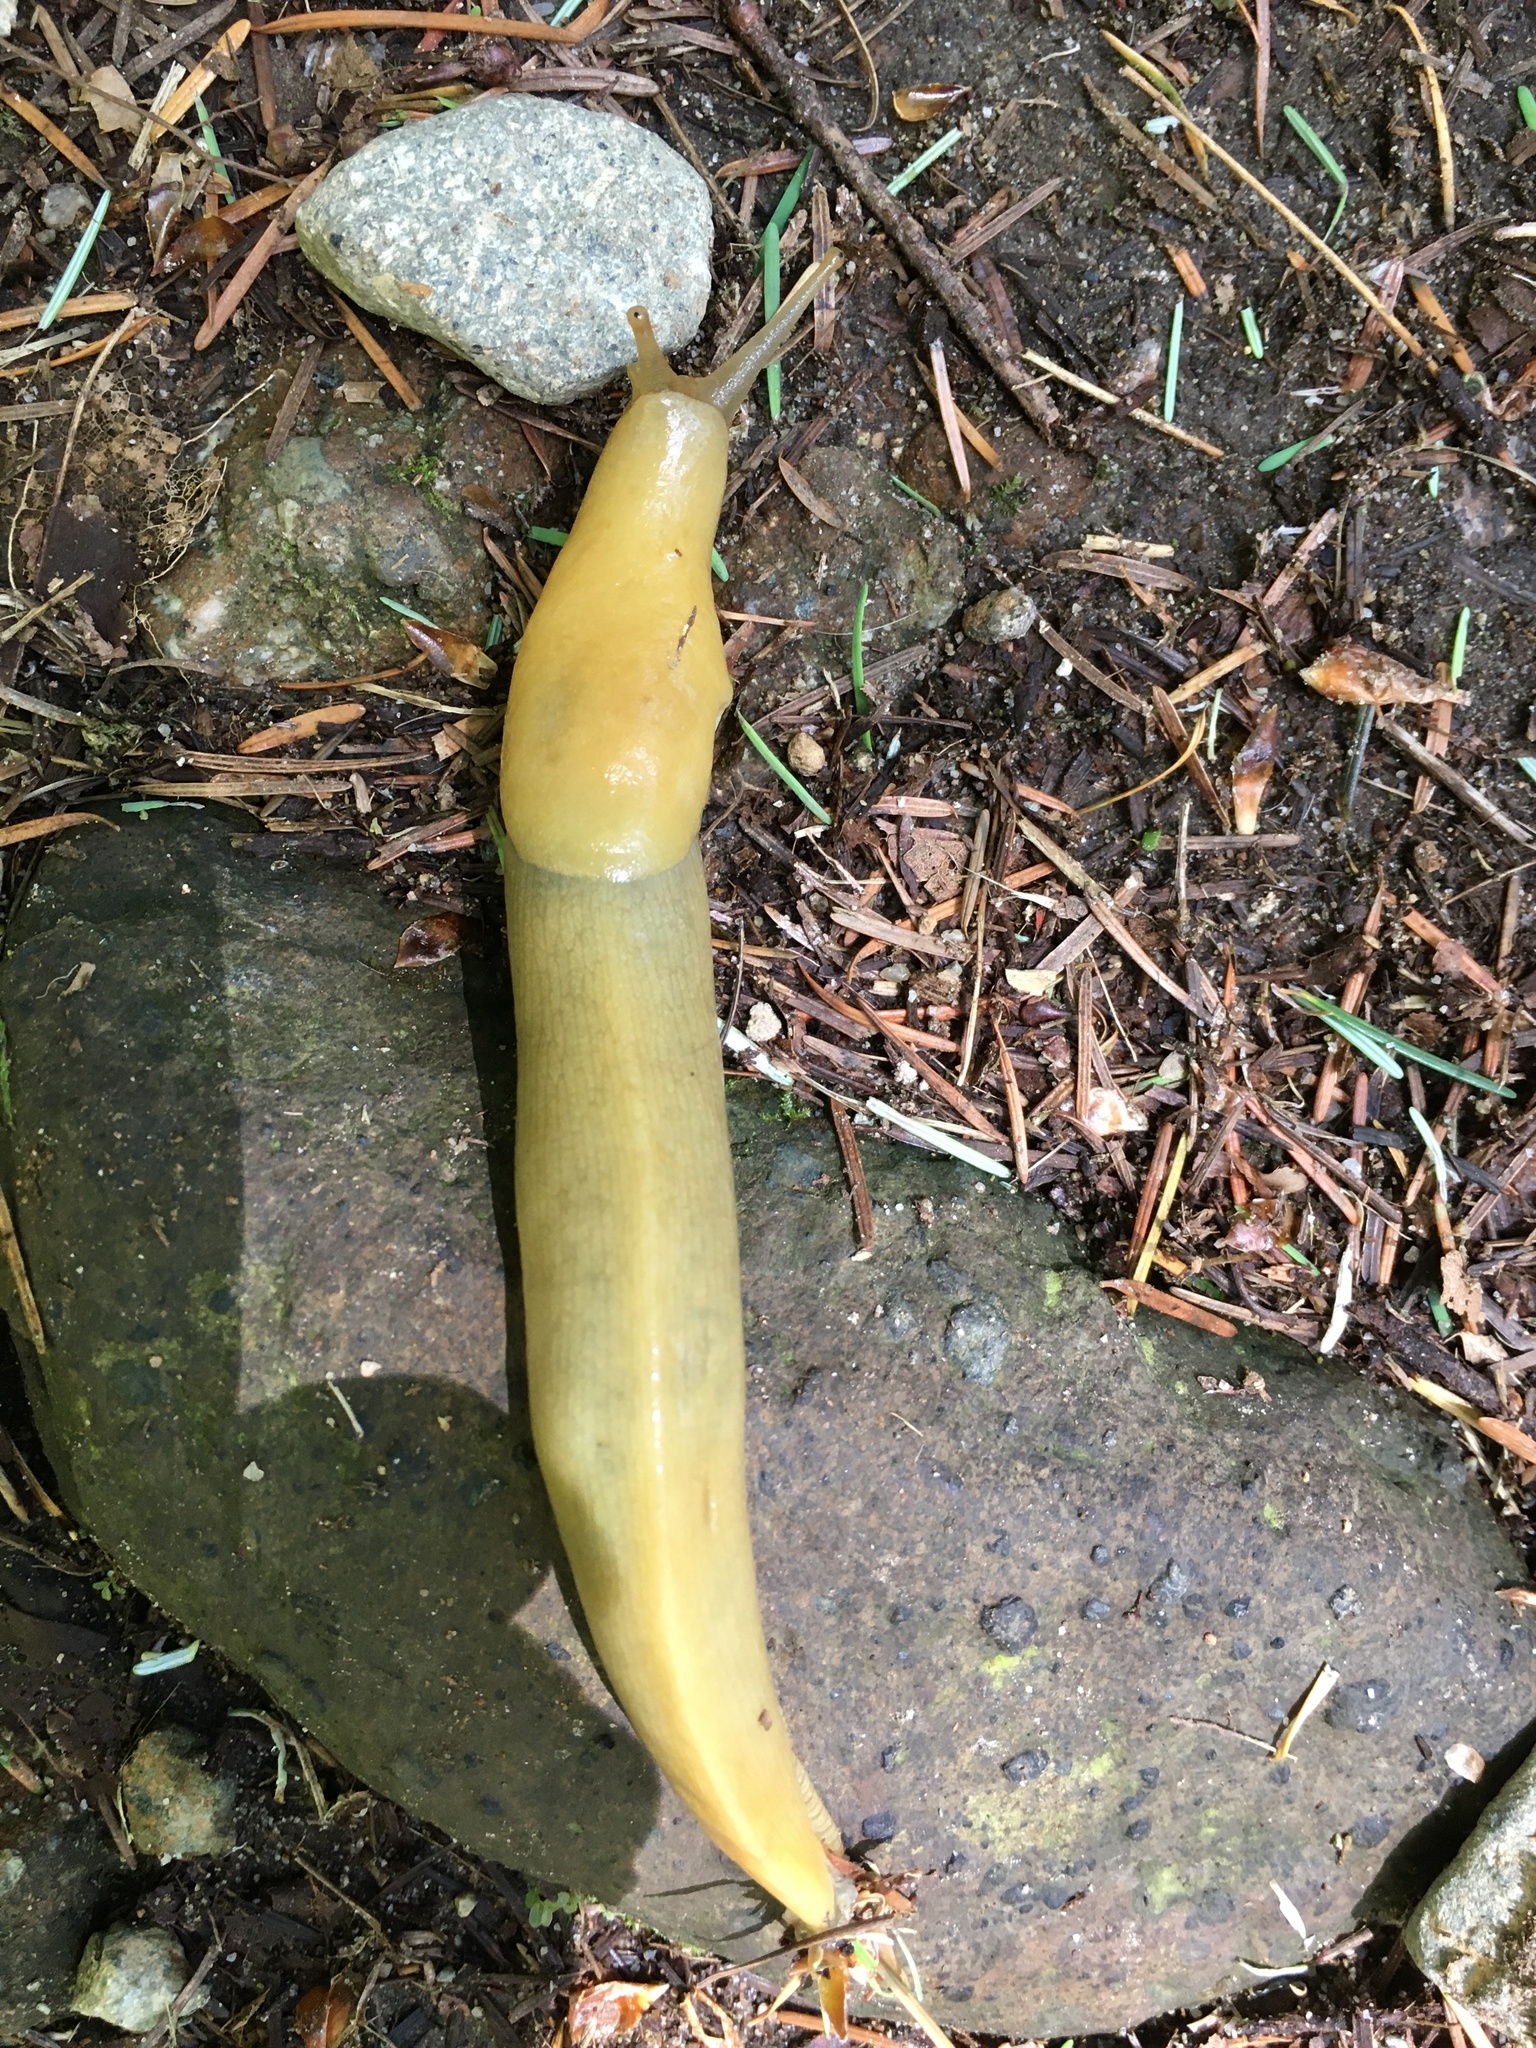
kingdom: Animalia
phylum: Mollusca
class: Gastropoda
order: Stylommatophora
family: Ariolimacidae
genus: Ariolimax
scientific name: Ariolimax columbianus
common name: Pacific banana slug
